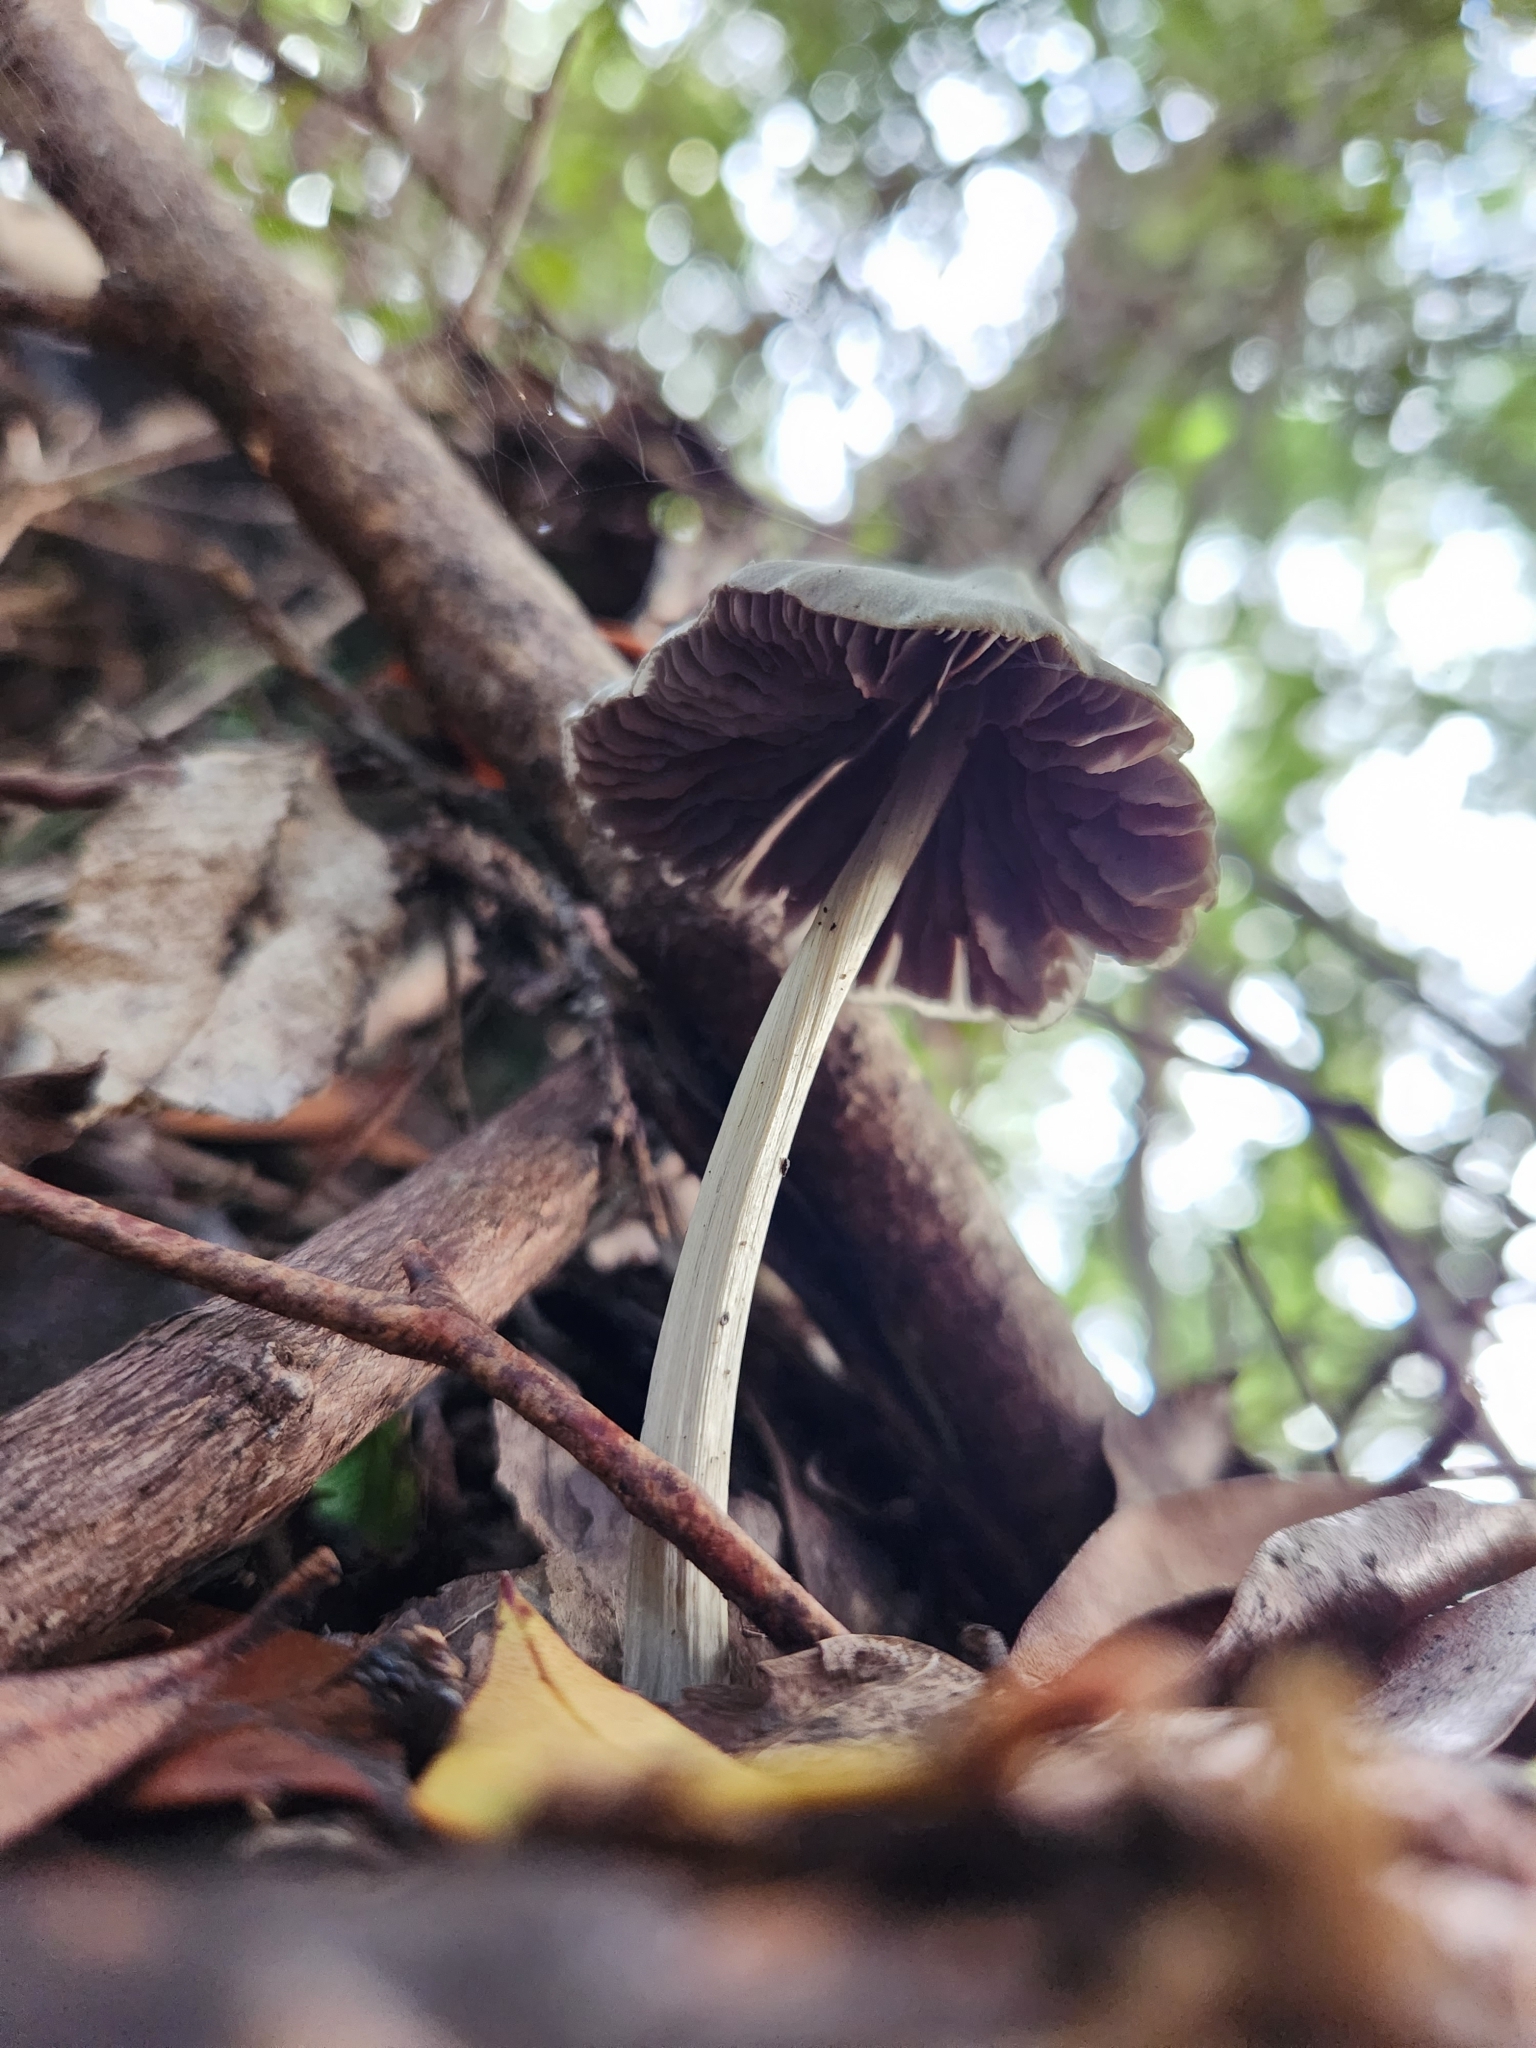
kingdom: Fungi
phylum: Basidiomycota
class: Agaricomycetes
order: Agaricales
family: Entolomataceae
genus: Entoloma
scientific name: Entoloma canoconicum
